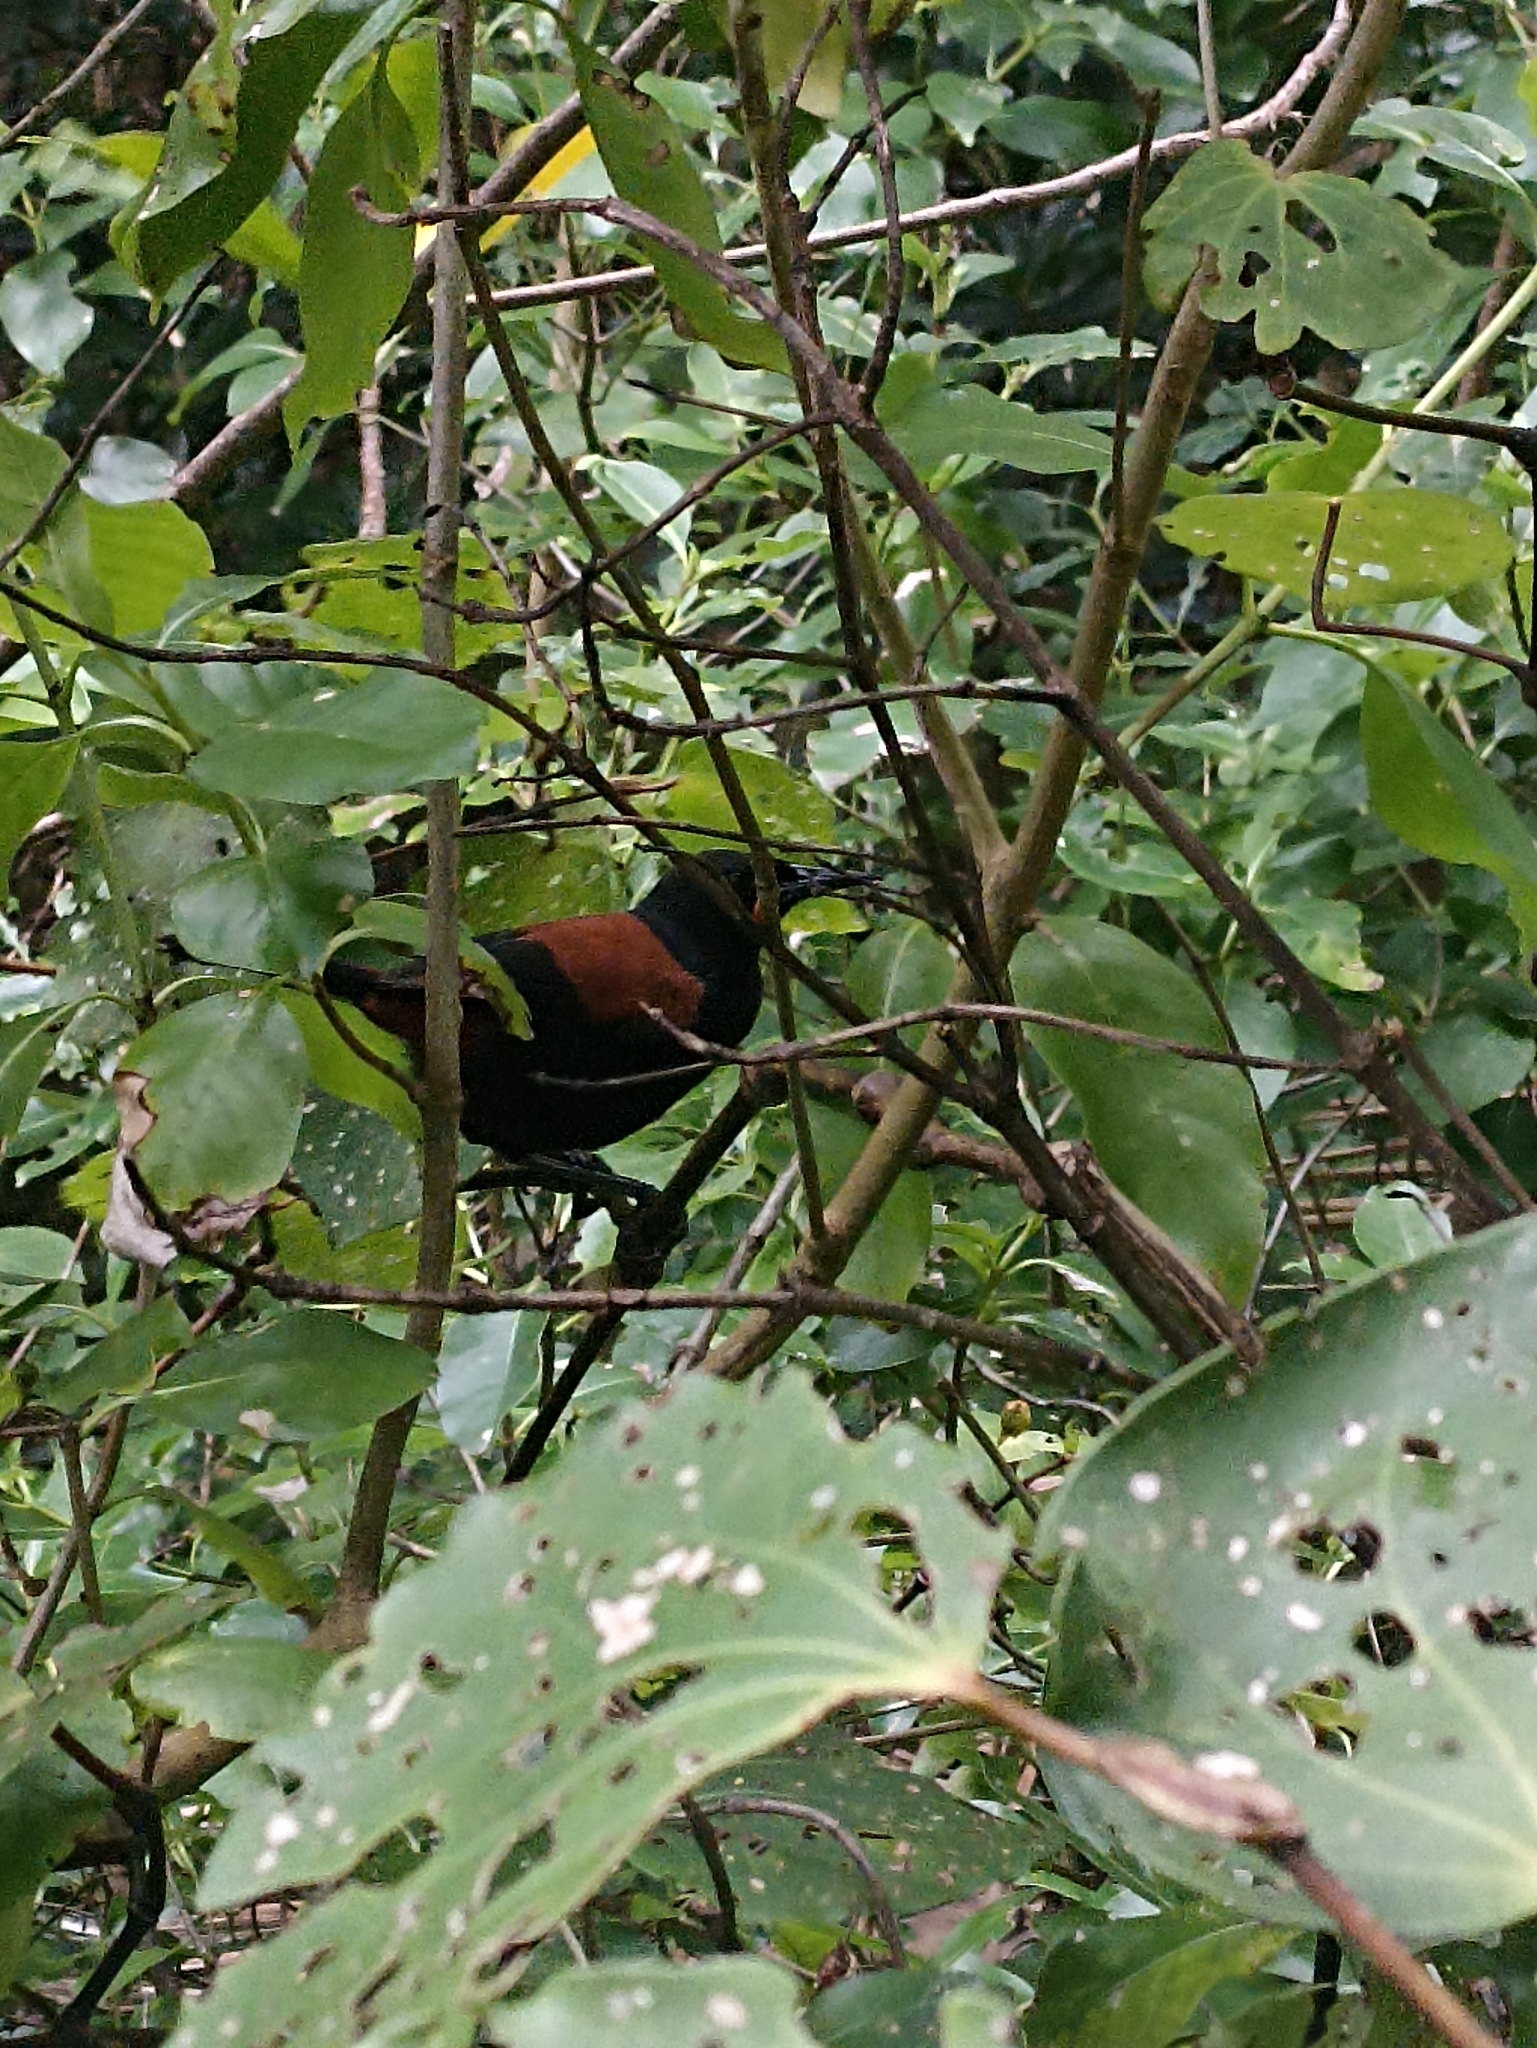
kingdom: Animalia
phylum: Chordata
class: Aves
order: Passeriformes
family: Callaeatidae
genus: Philesturnus
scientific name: Philesturnus carunculatus
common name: South island saddleback
